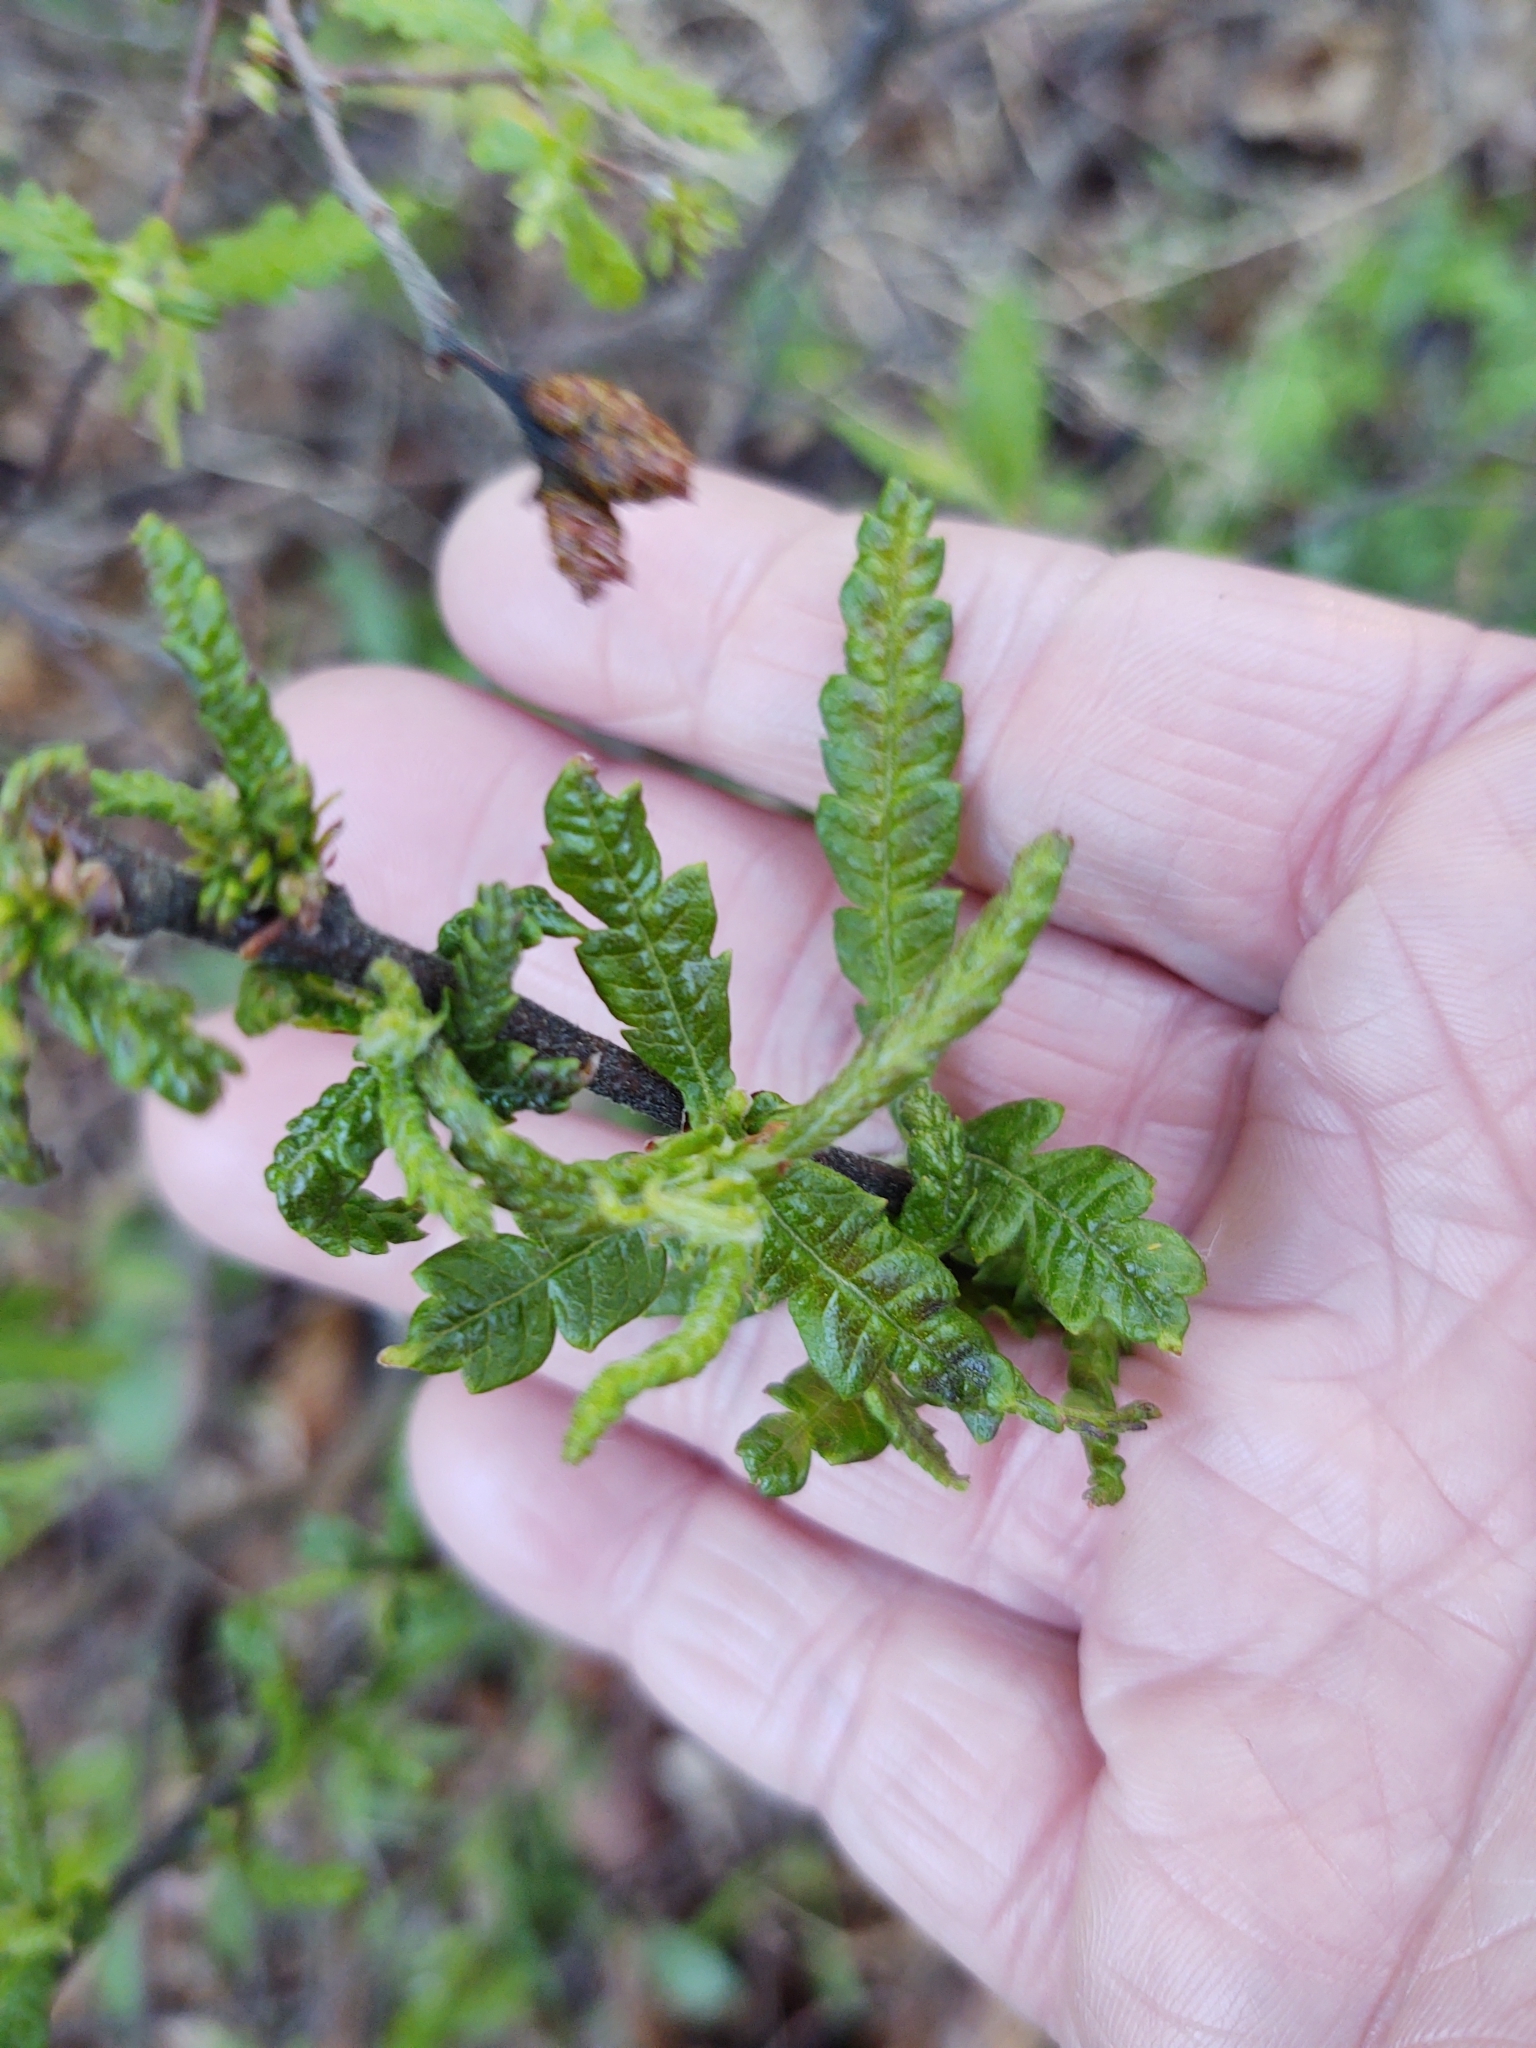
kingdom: Plantae
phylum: Tracheophyta
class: Magnoliopsida
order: Fagales
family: Myricaceae
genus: Comptonia
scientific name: Comptonia peregrina
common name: Sweet-fern
